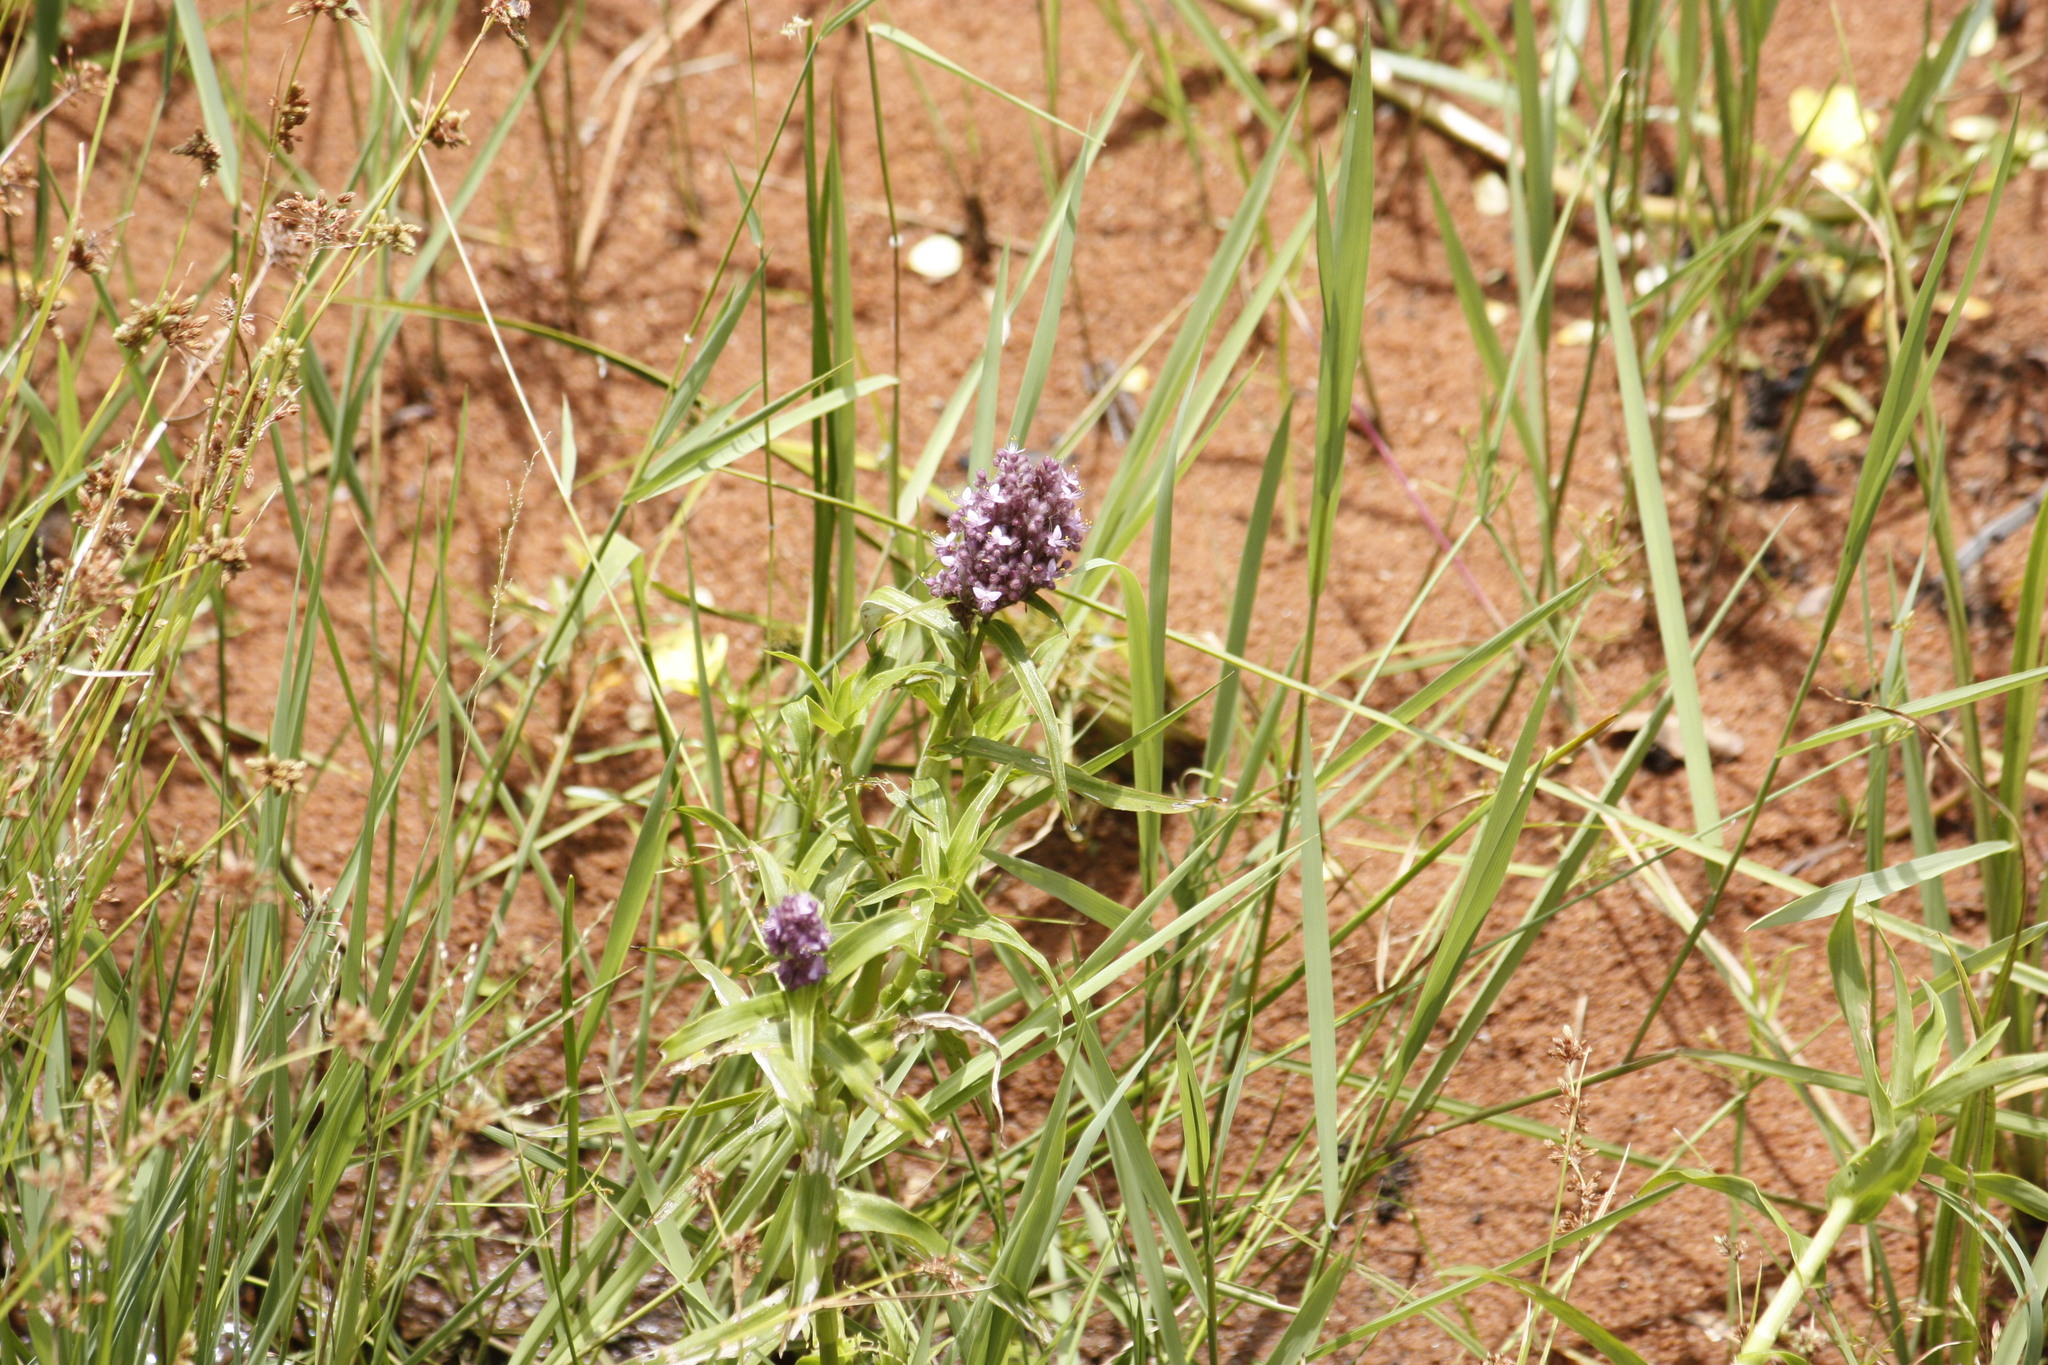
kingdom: Plantae
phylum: Tracheophyta
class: Liliopsida
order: Commelinales
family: Commelinaceae
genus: Floscopa
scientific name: Floscopa glomerata
